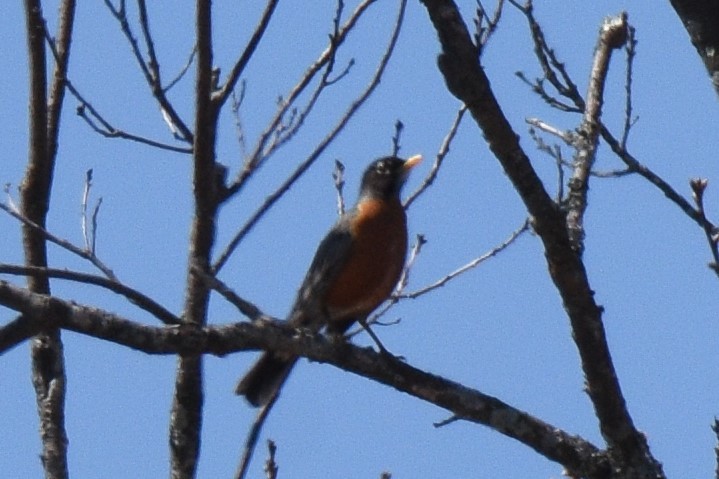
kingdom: Animalia
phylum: Chordata
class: Aves
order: Passeriformes
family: Turdidae
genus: Turdus
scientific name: Turdus migratorius
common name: American robin
